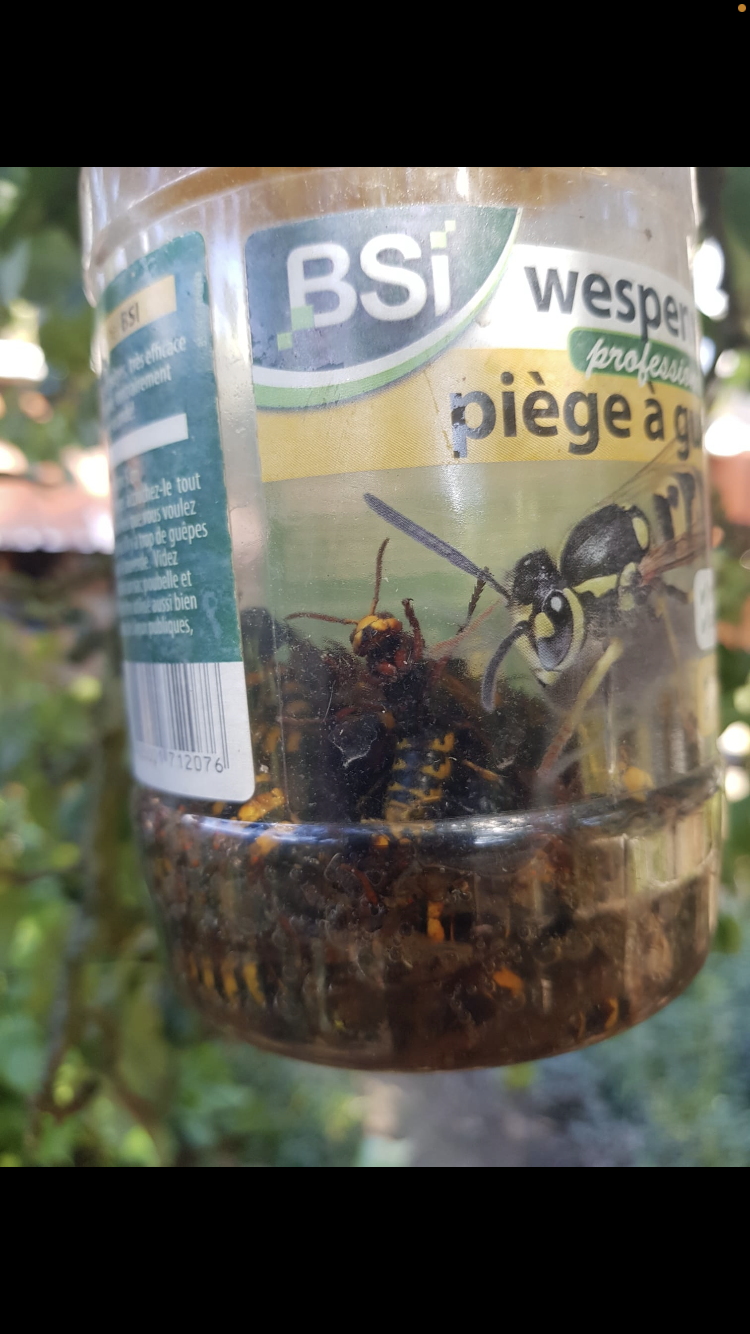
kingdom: Animalia
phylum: Arthropoda
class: Insecta
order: Hymenoptera
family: Vespidae
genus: Vespa
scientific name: Vespa crabro
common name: Hornet
